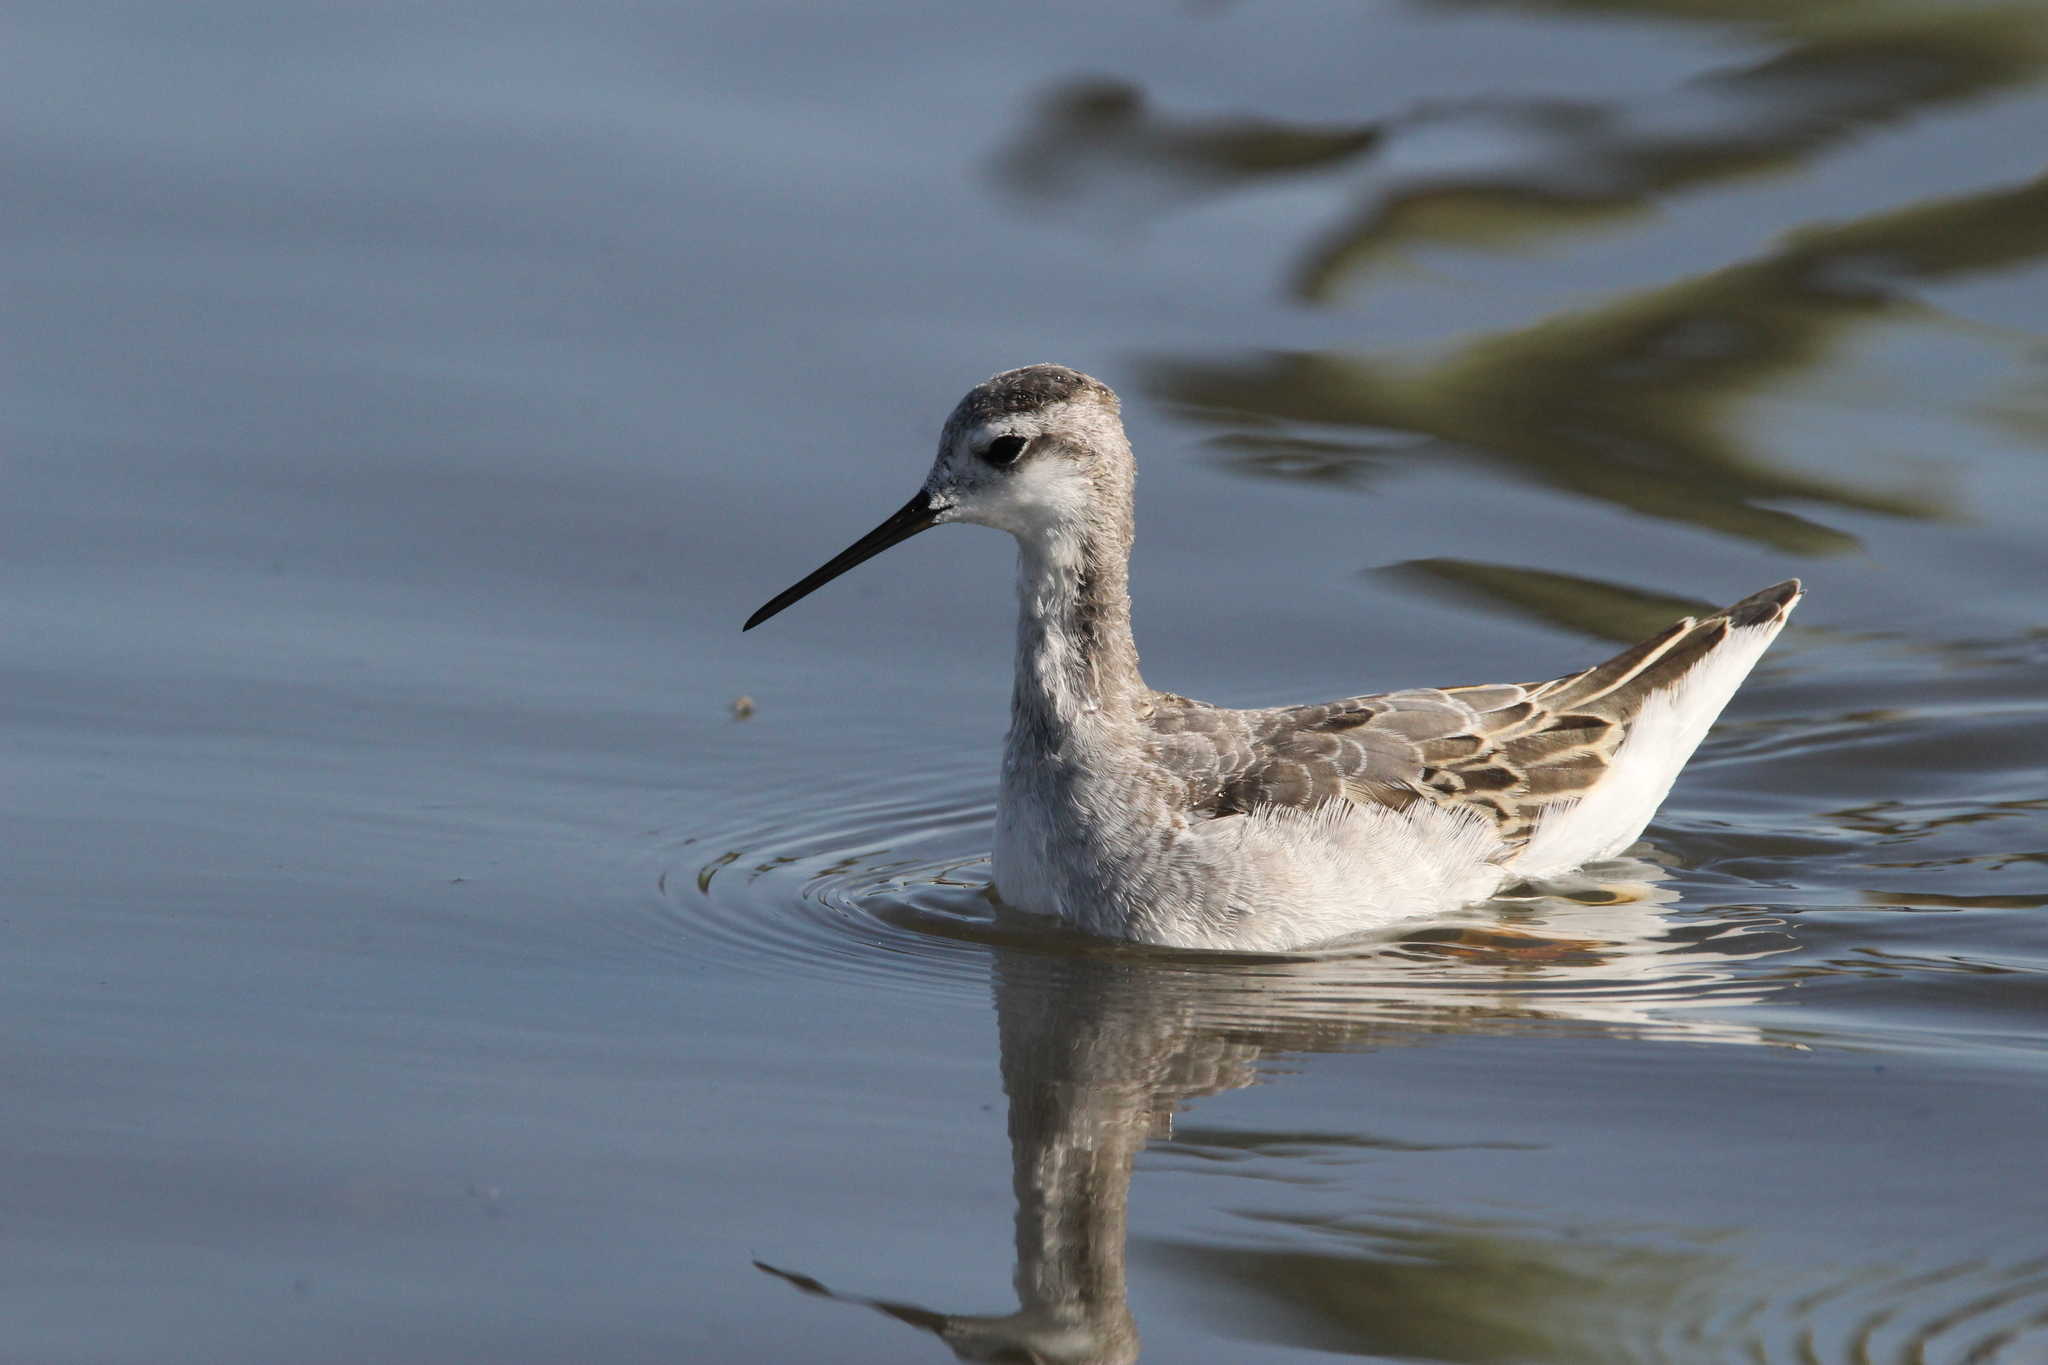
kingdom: Animalia
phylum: Chordata
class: Aves
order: Charadriiformes
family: Scolopacidae
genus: Phalaropus
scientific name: Phalaropus tricolor
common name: Wilson's phalarope
